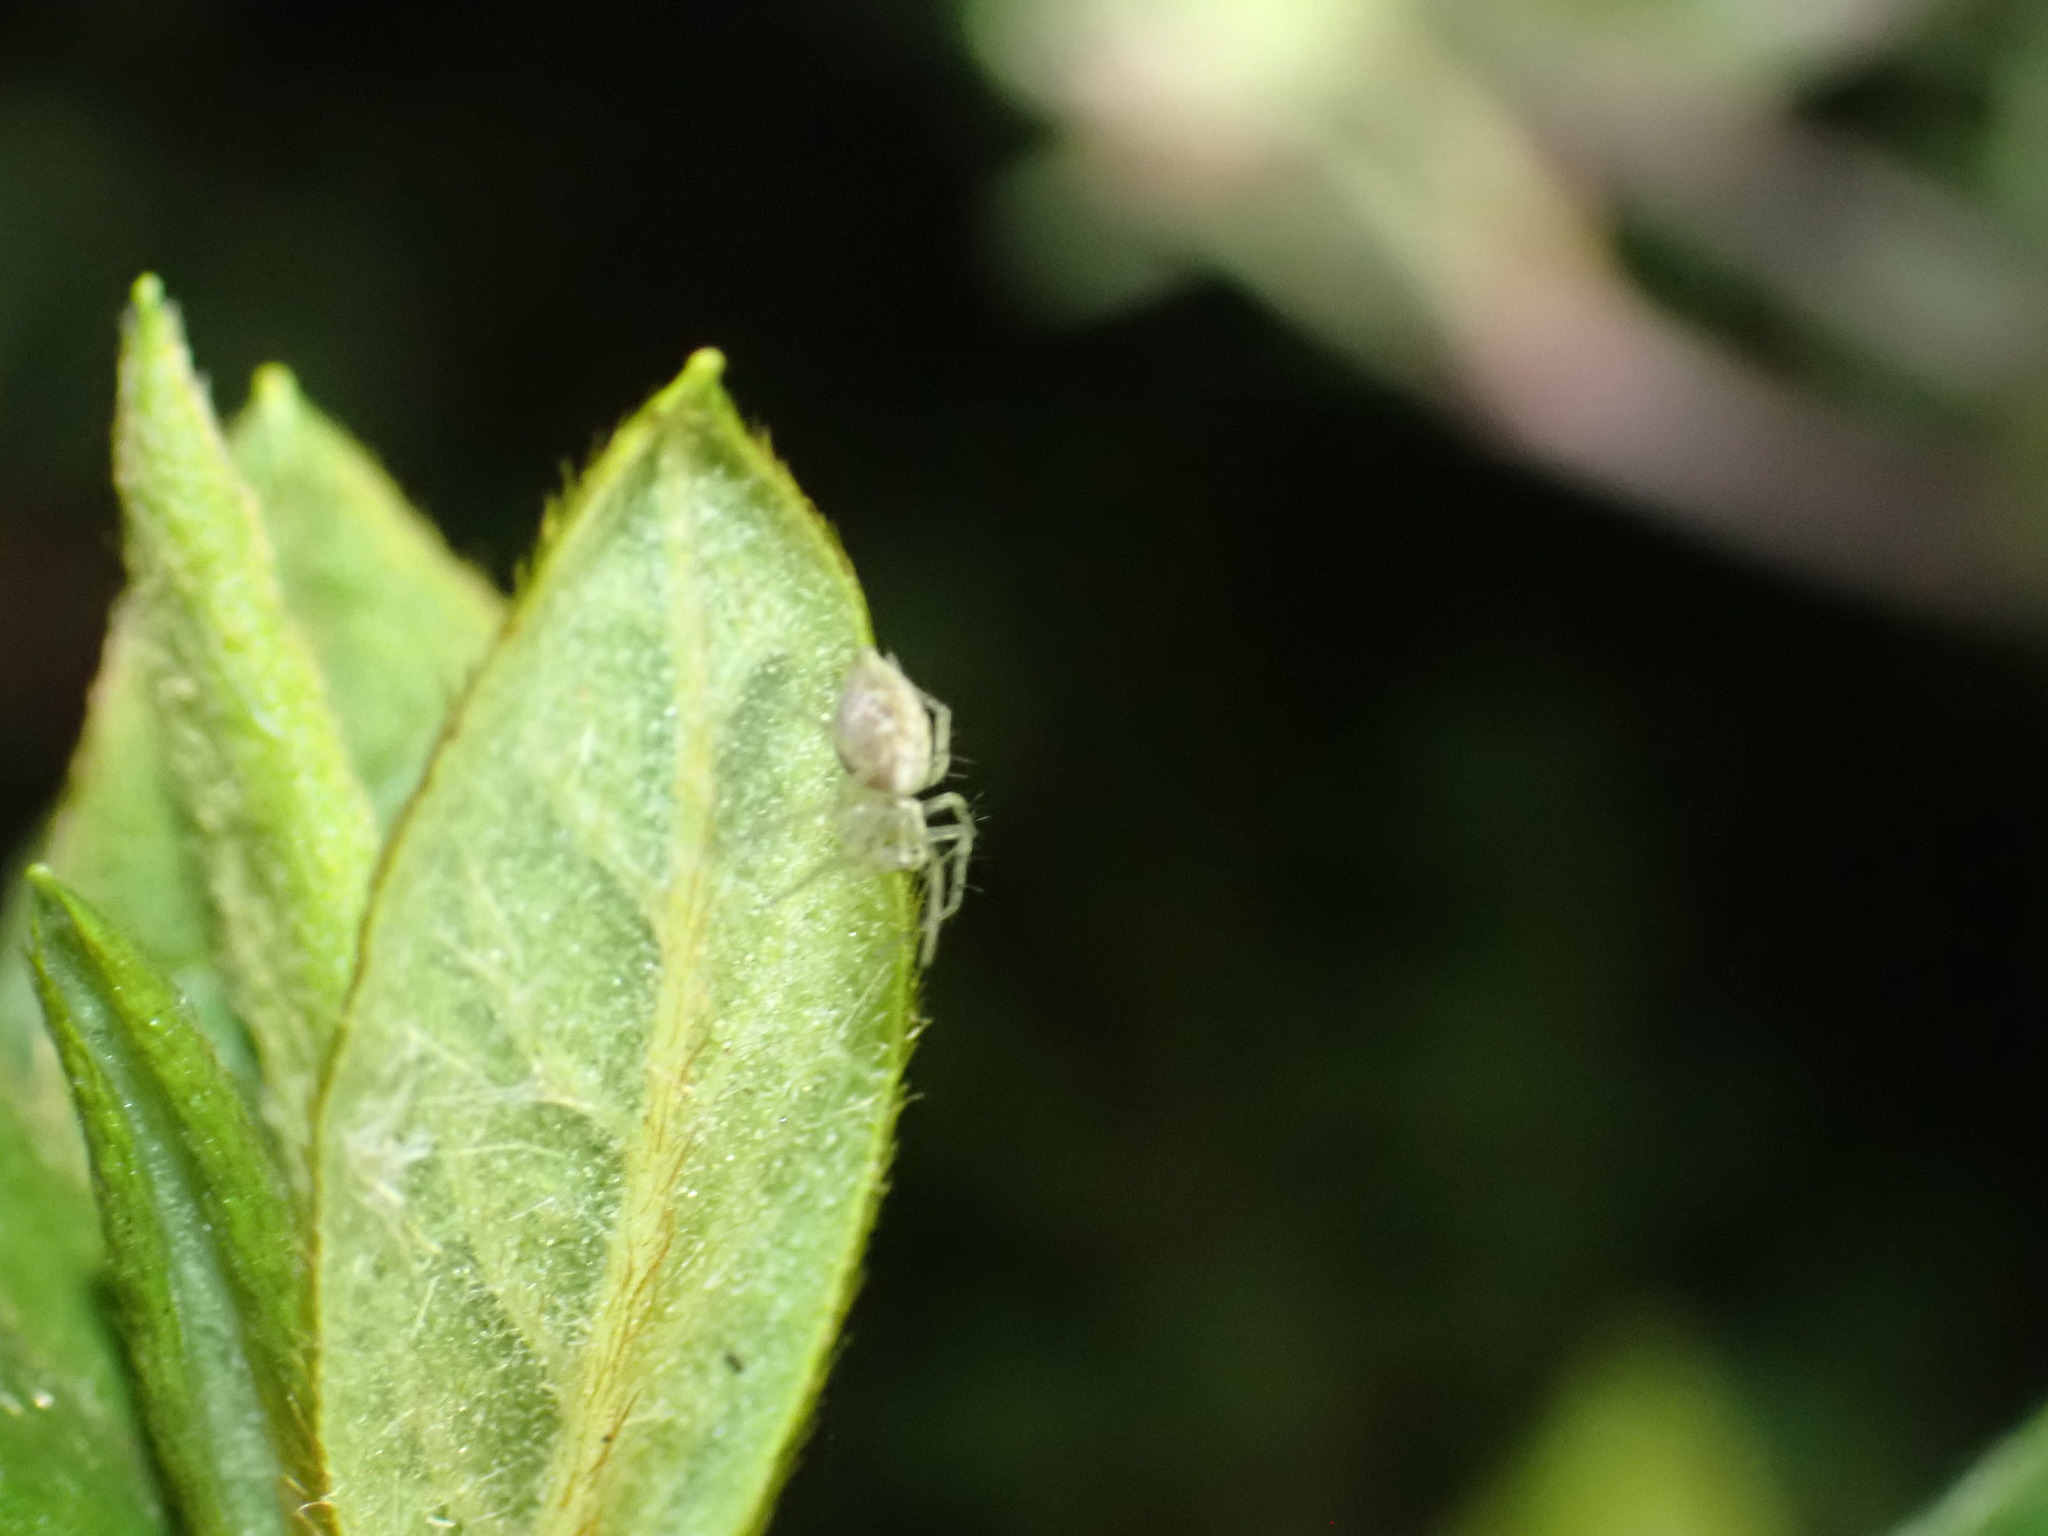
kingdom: Animalia
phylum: Arthropoda
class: Arachnida
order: Araneae
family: Oxyopidae
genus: Oxyopes
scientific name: Oxyopes gracilipes
